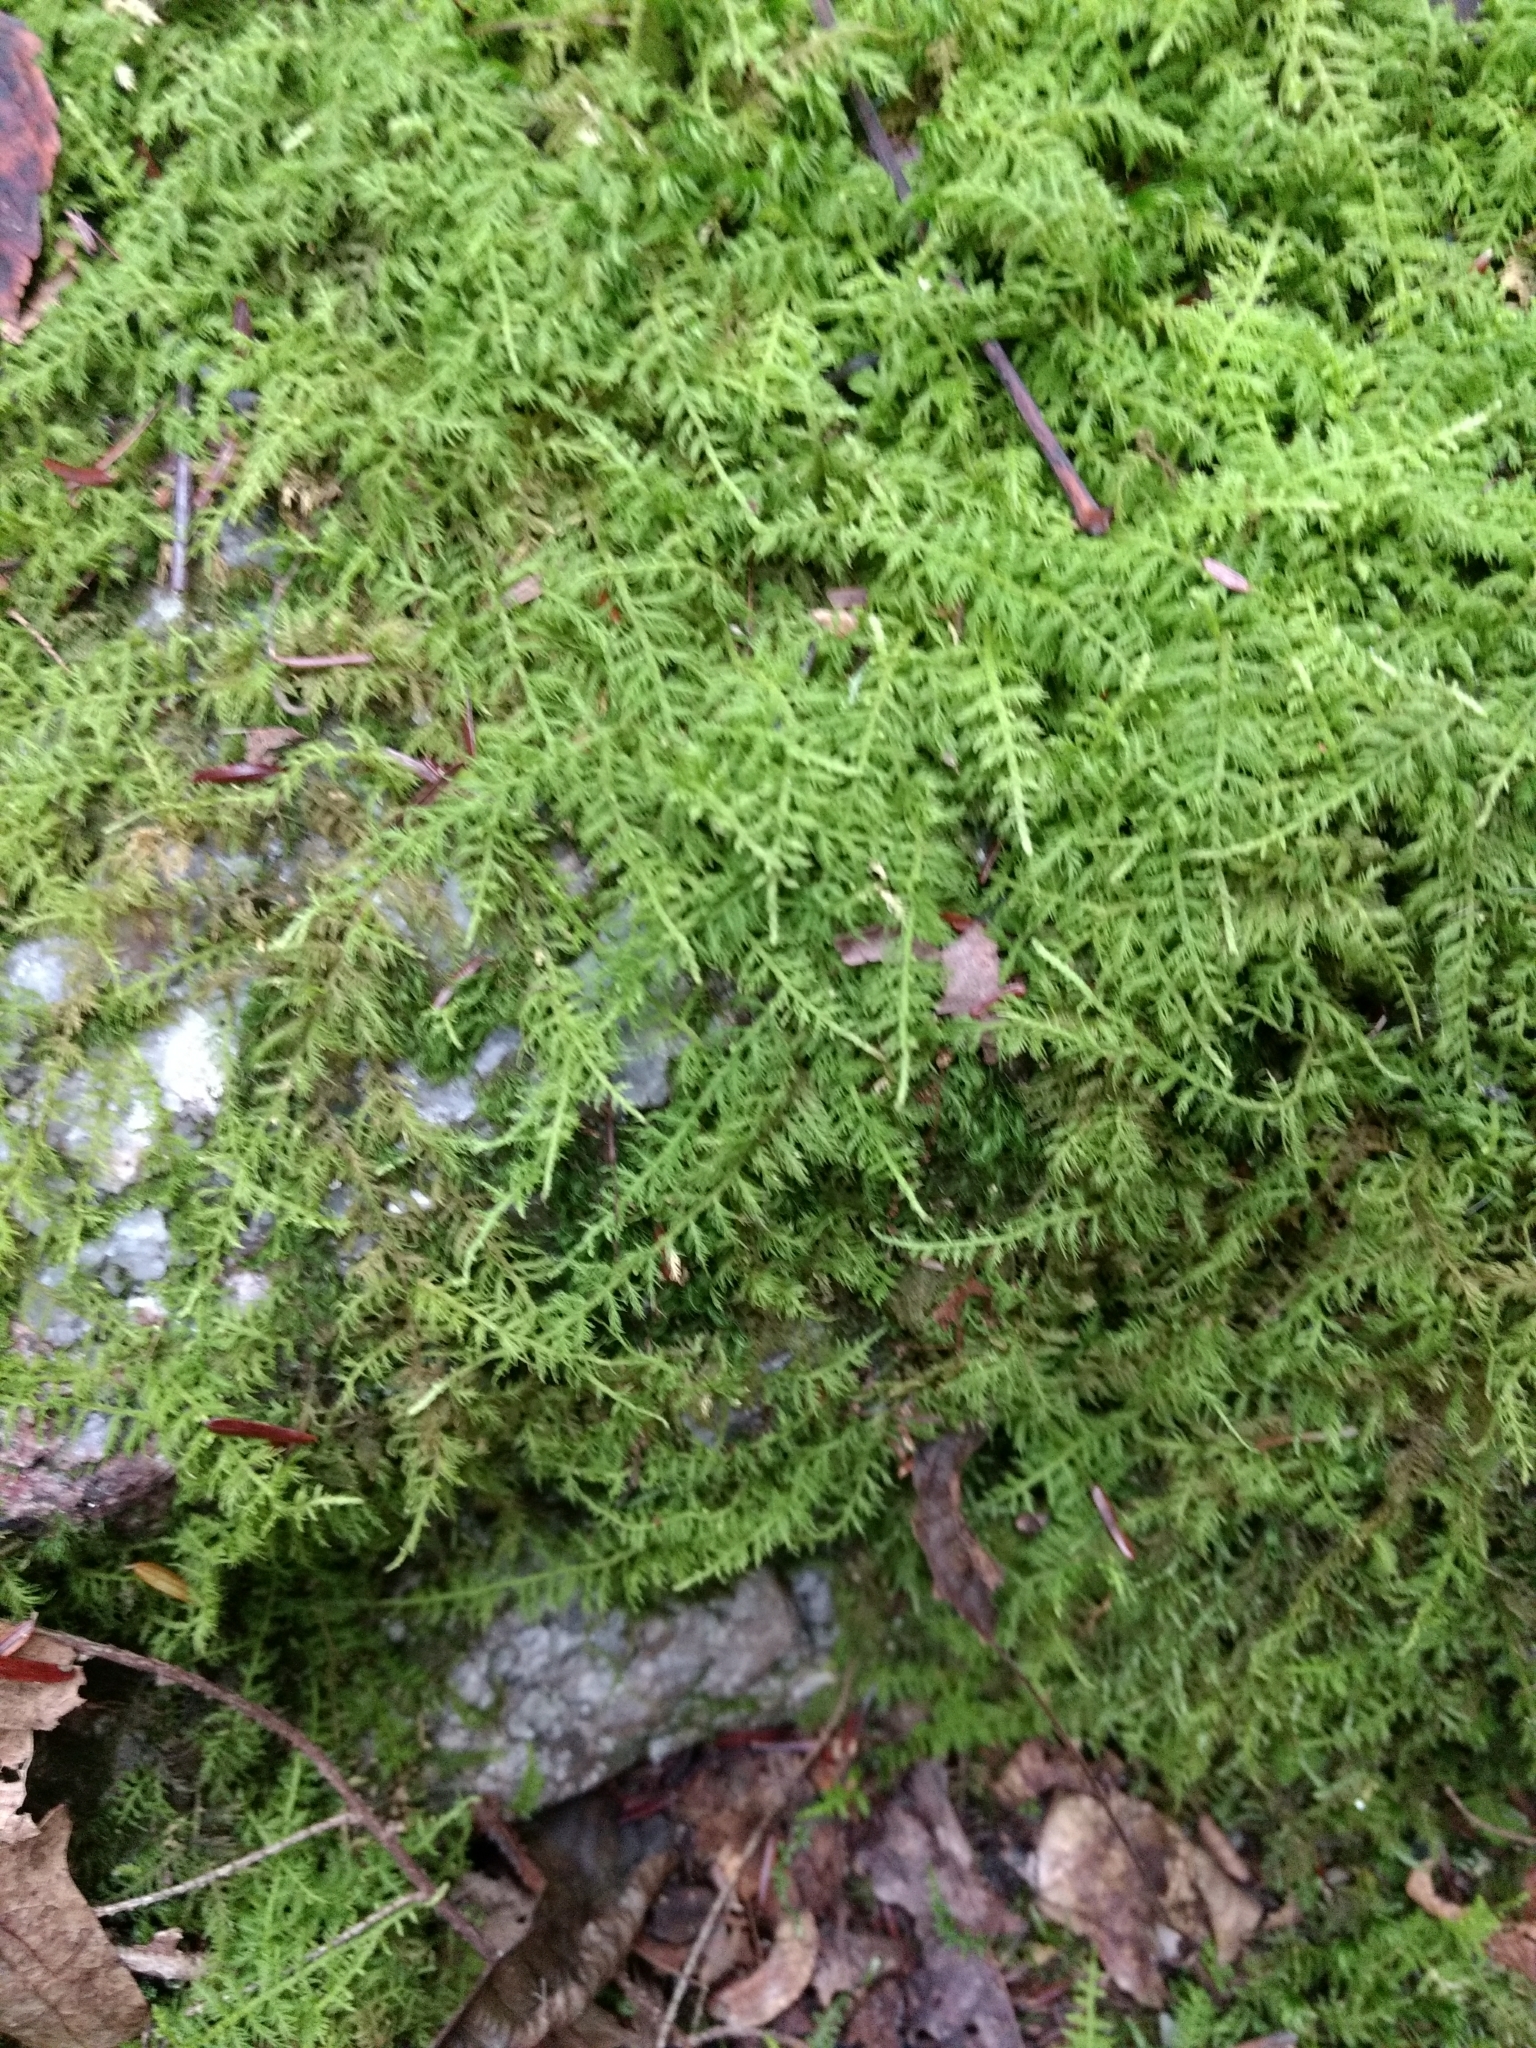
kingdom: Plantae
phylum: Bryophyta
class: Bryopsida
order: Hypnales
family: Thuidiaceae
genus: Thuidium
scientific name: Thuidium delicatulum
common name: Delicate fern moss
